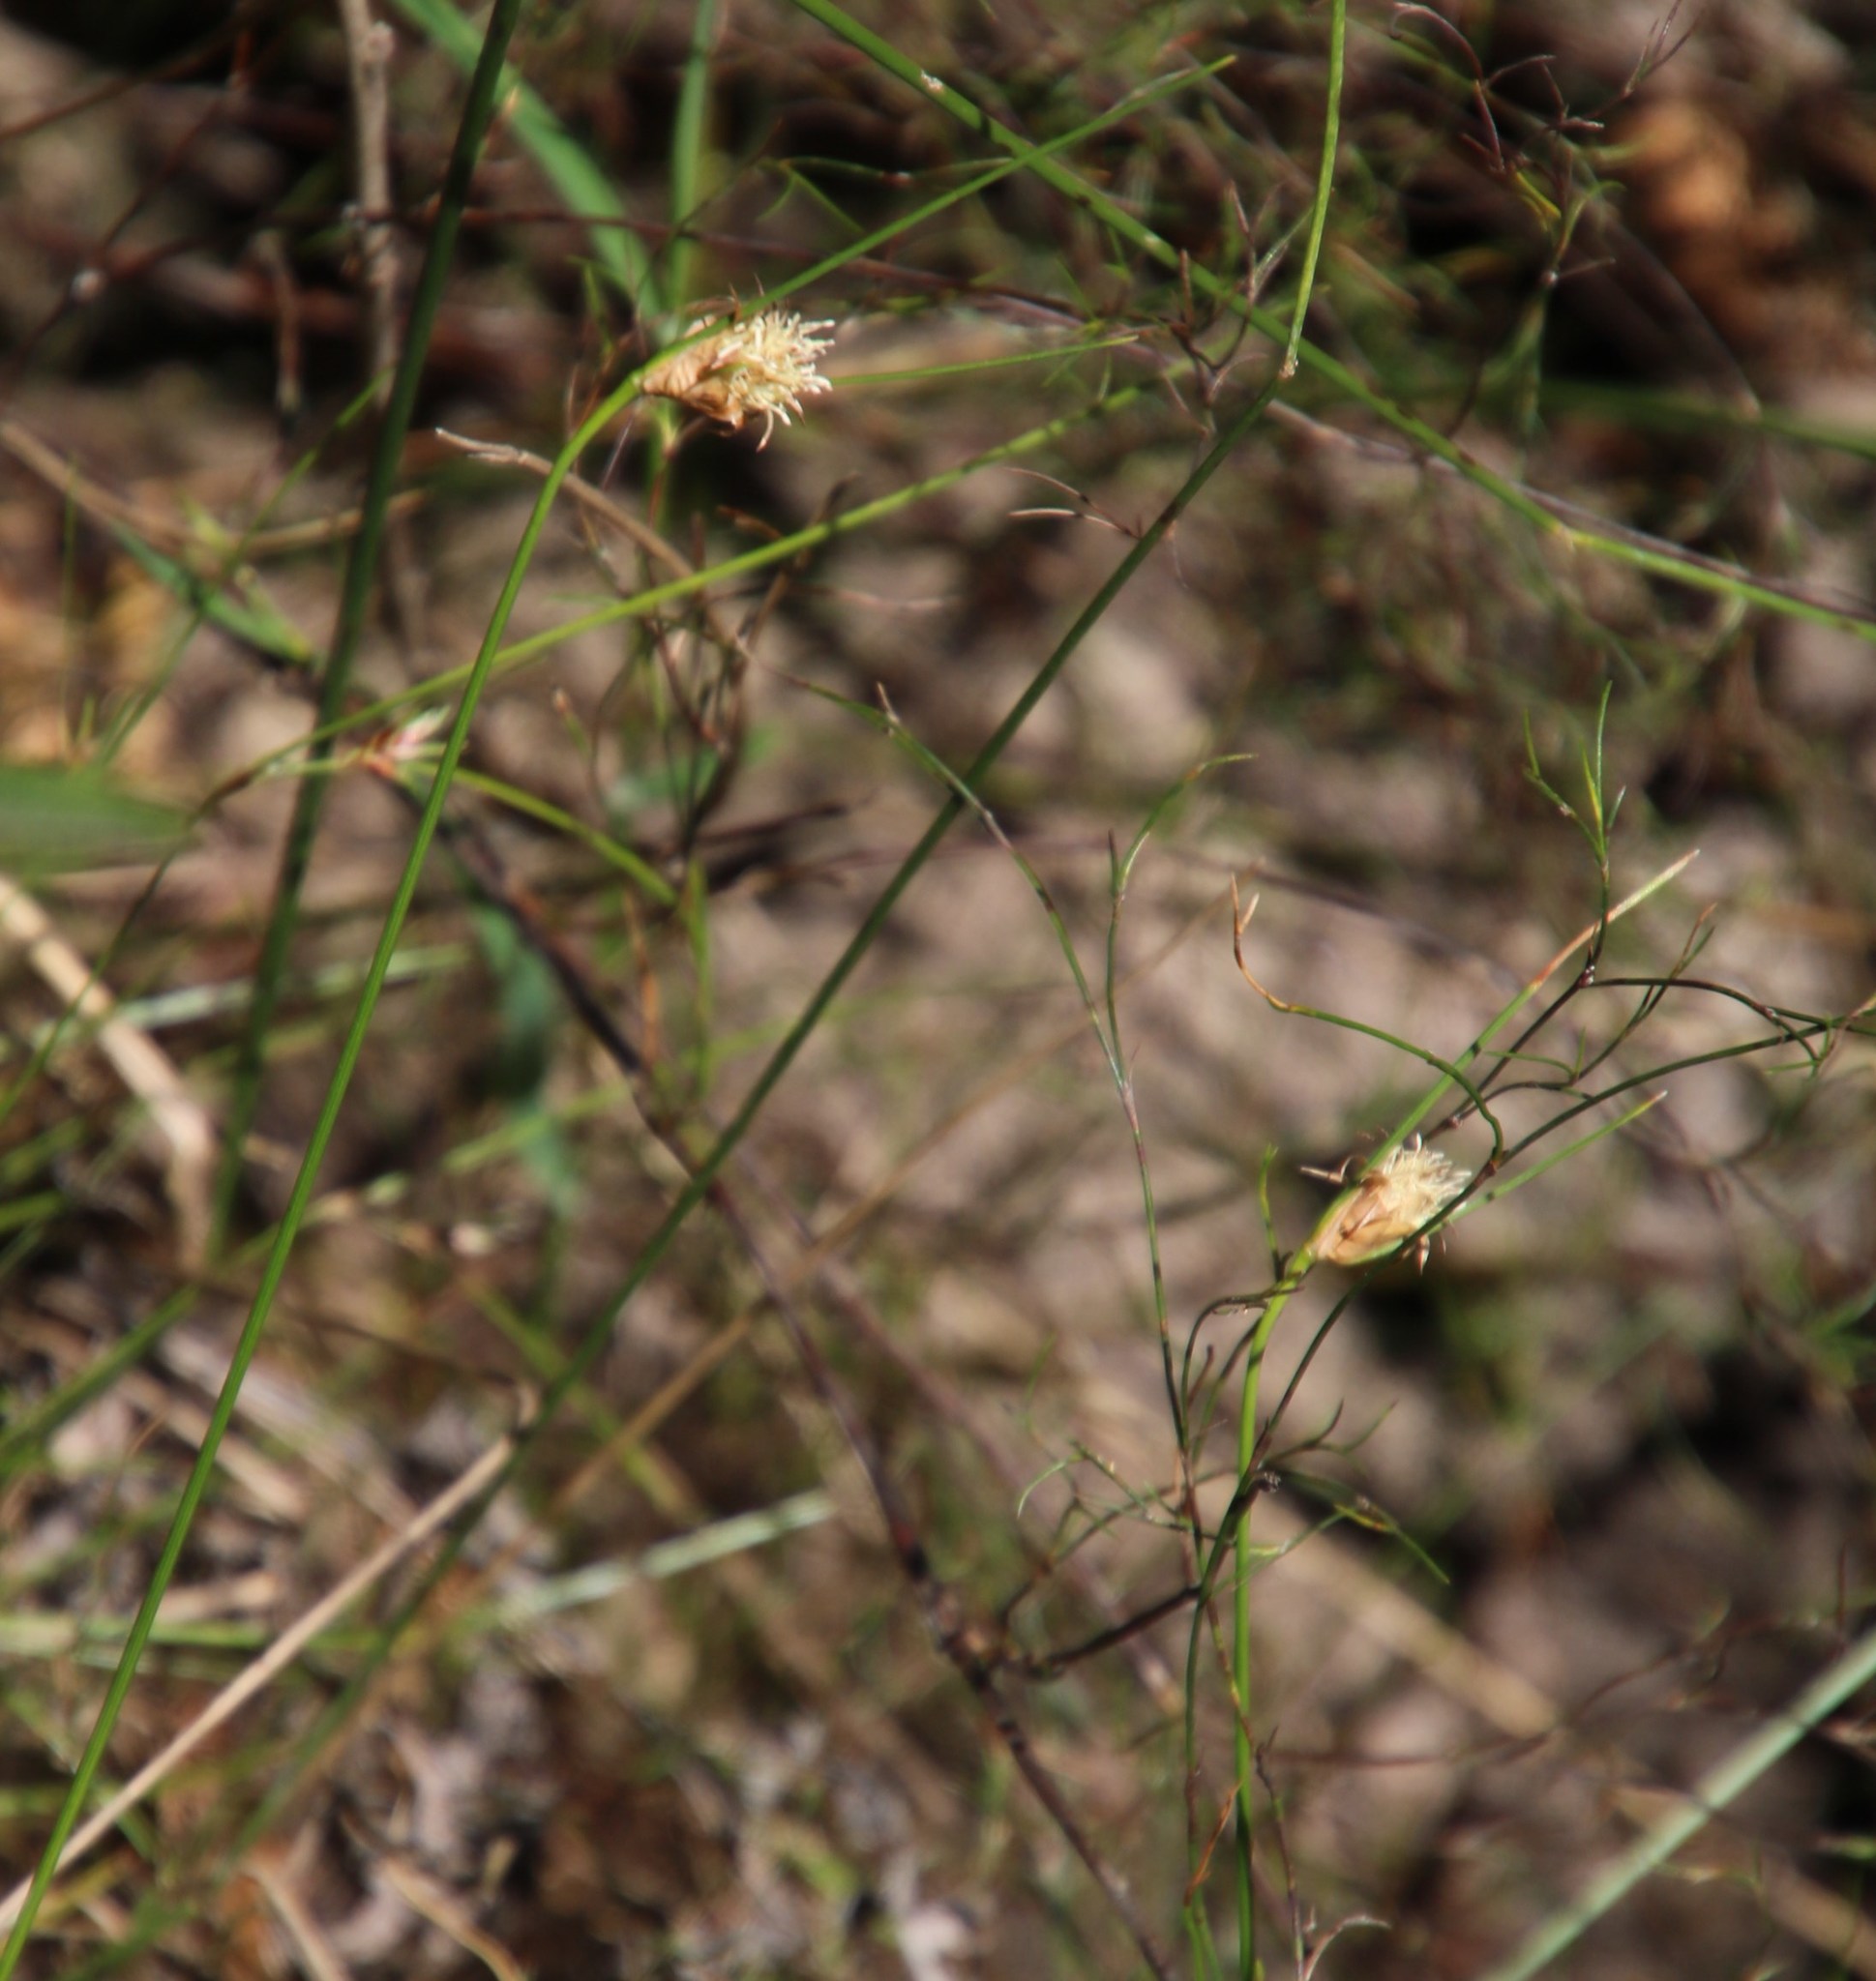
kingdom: Plantae
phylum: Tracheophyta
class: Liliopsida
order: Poales
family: Cyperaceae
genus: Ficinia
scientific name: Ficinia nigrescens
